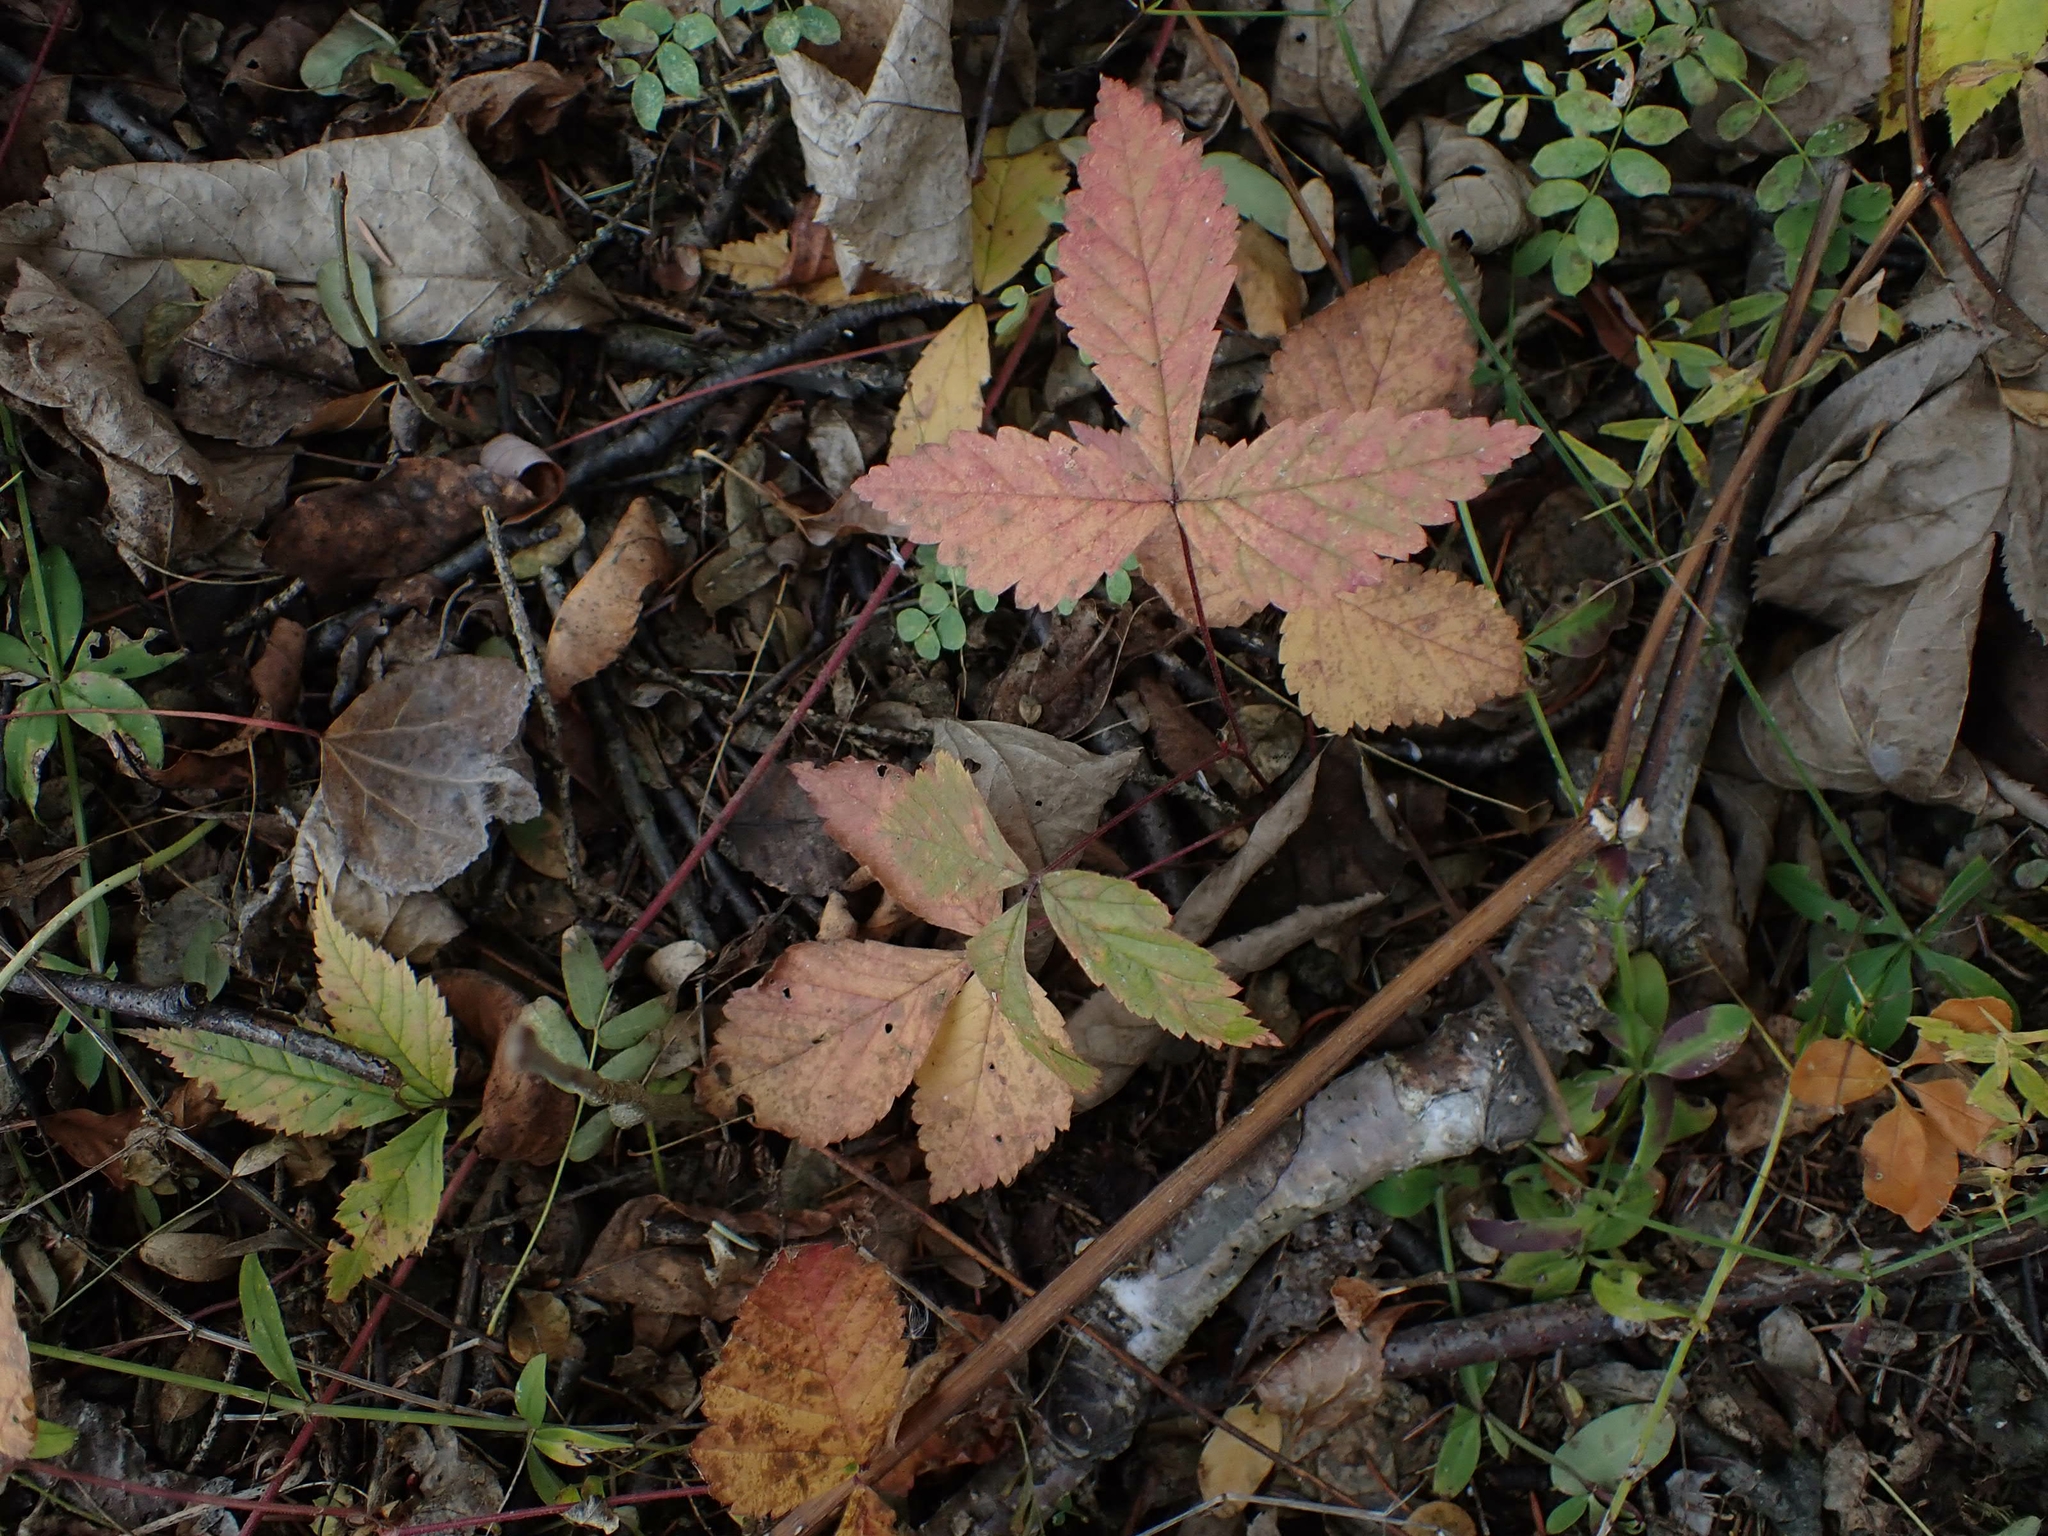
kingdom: Plantae
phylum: Tracheophyta
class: Magnoliopsida
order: Rosales
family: Rosaceae
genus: Rubus
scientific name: Rubus pubescens
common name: Dwarf raspberry
